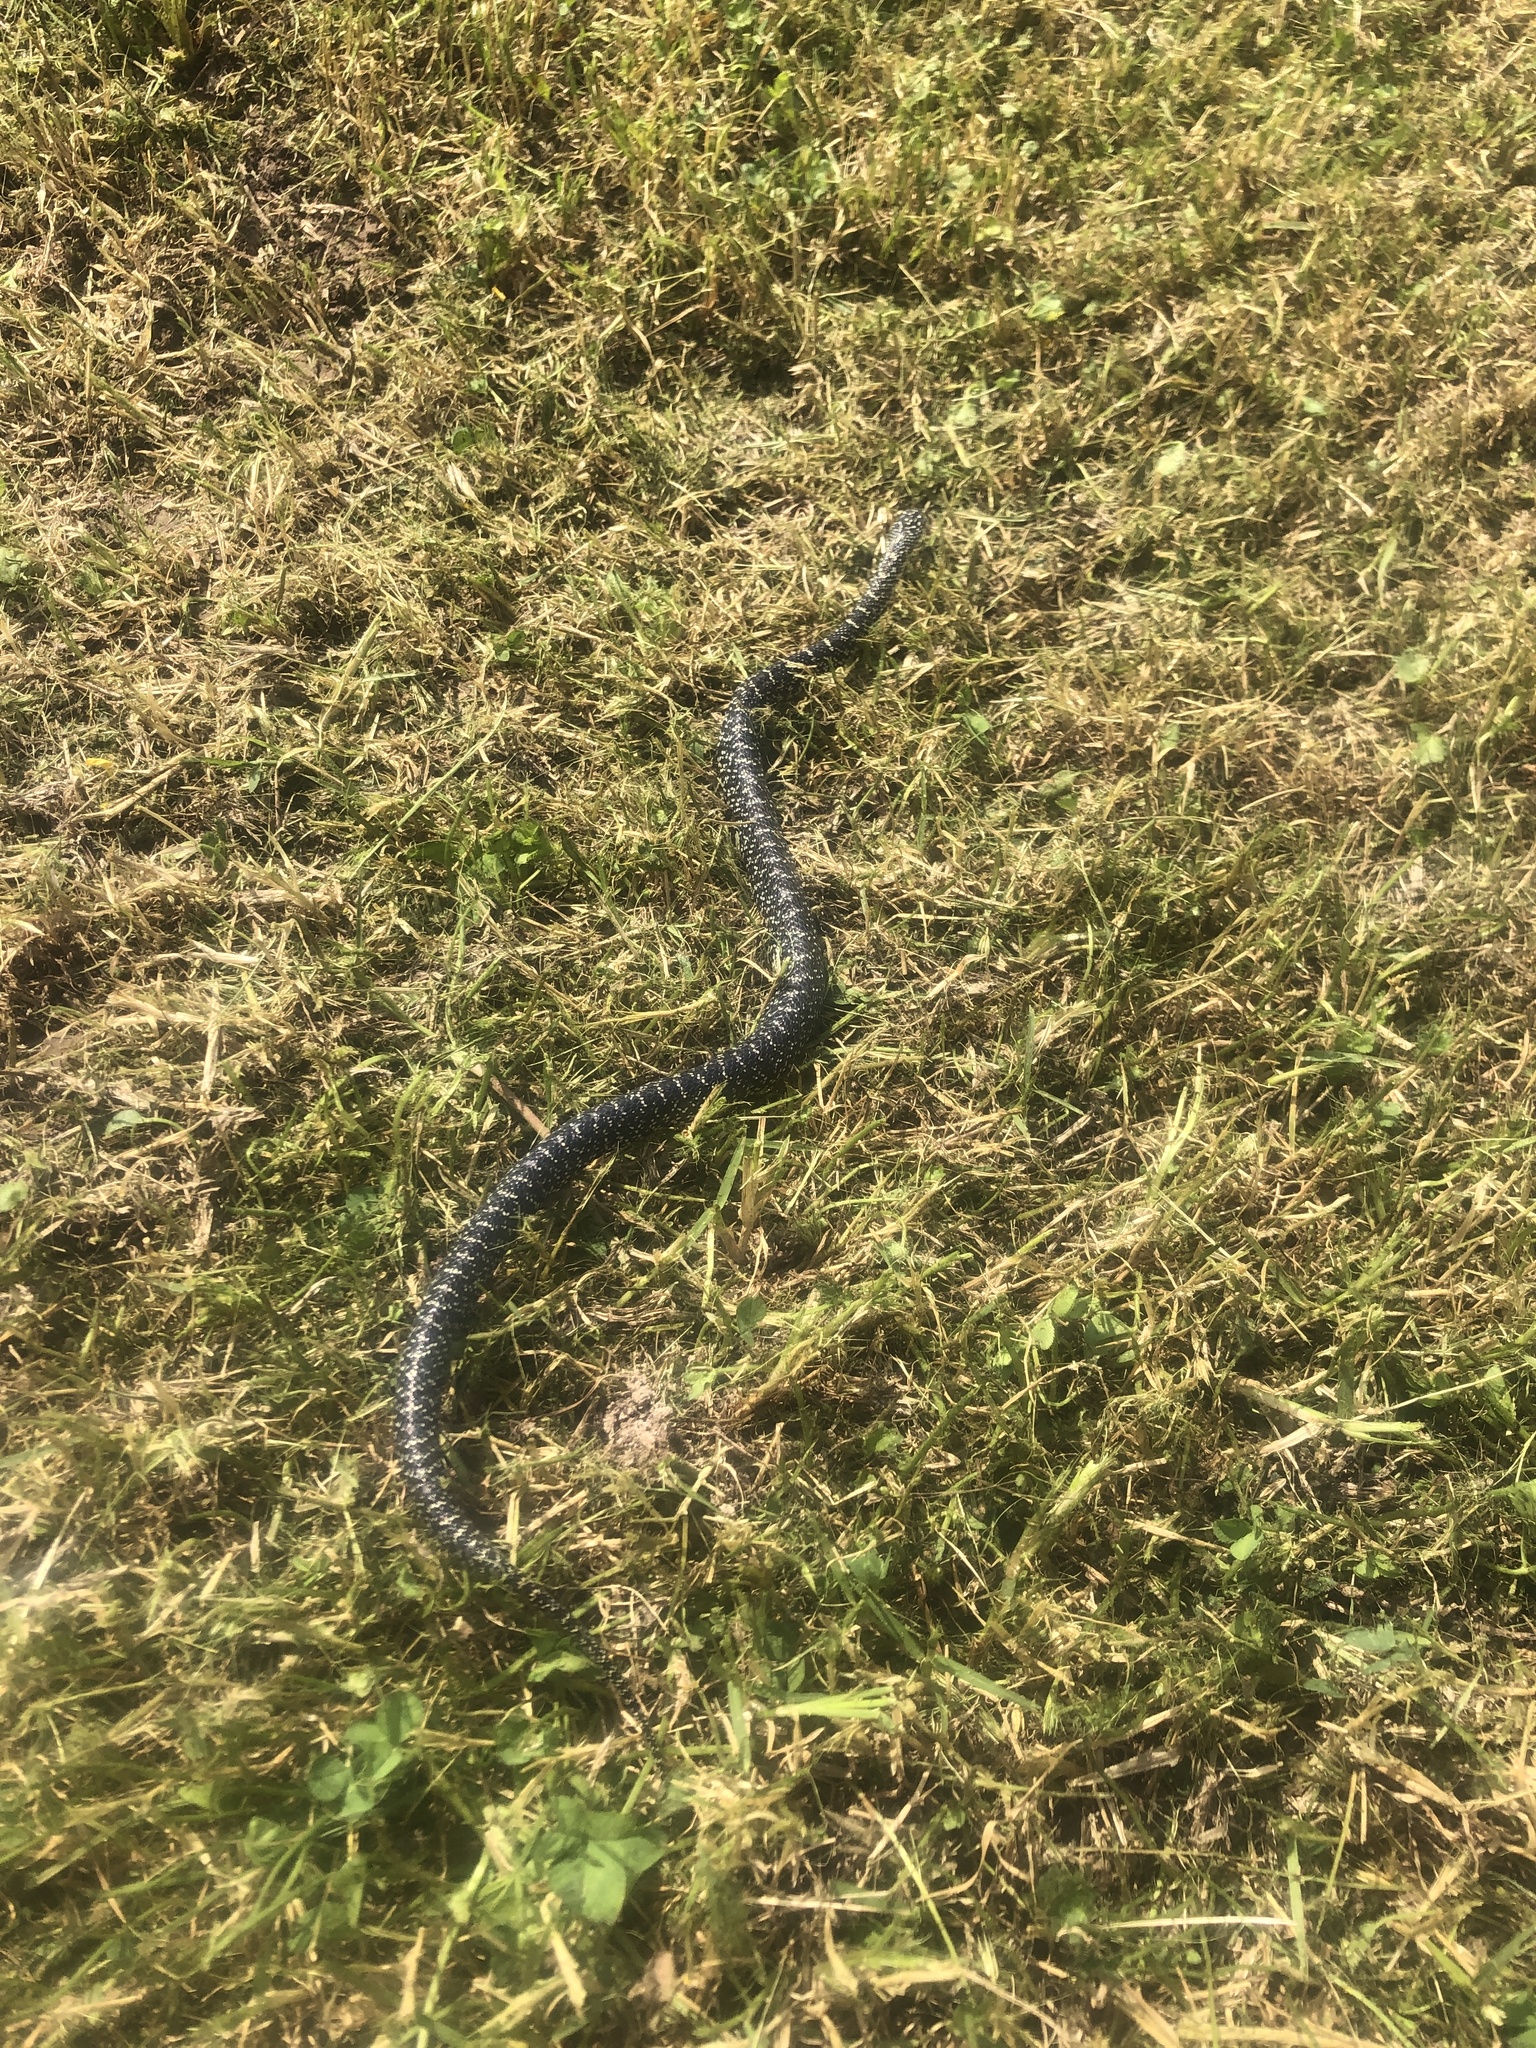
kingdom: Animalia
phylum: Chordata
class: Squamata
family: Colubridae
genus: Lampropeltis
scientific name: Lampropeltis holbrooki
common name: Speckled kingsnake
